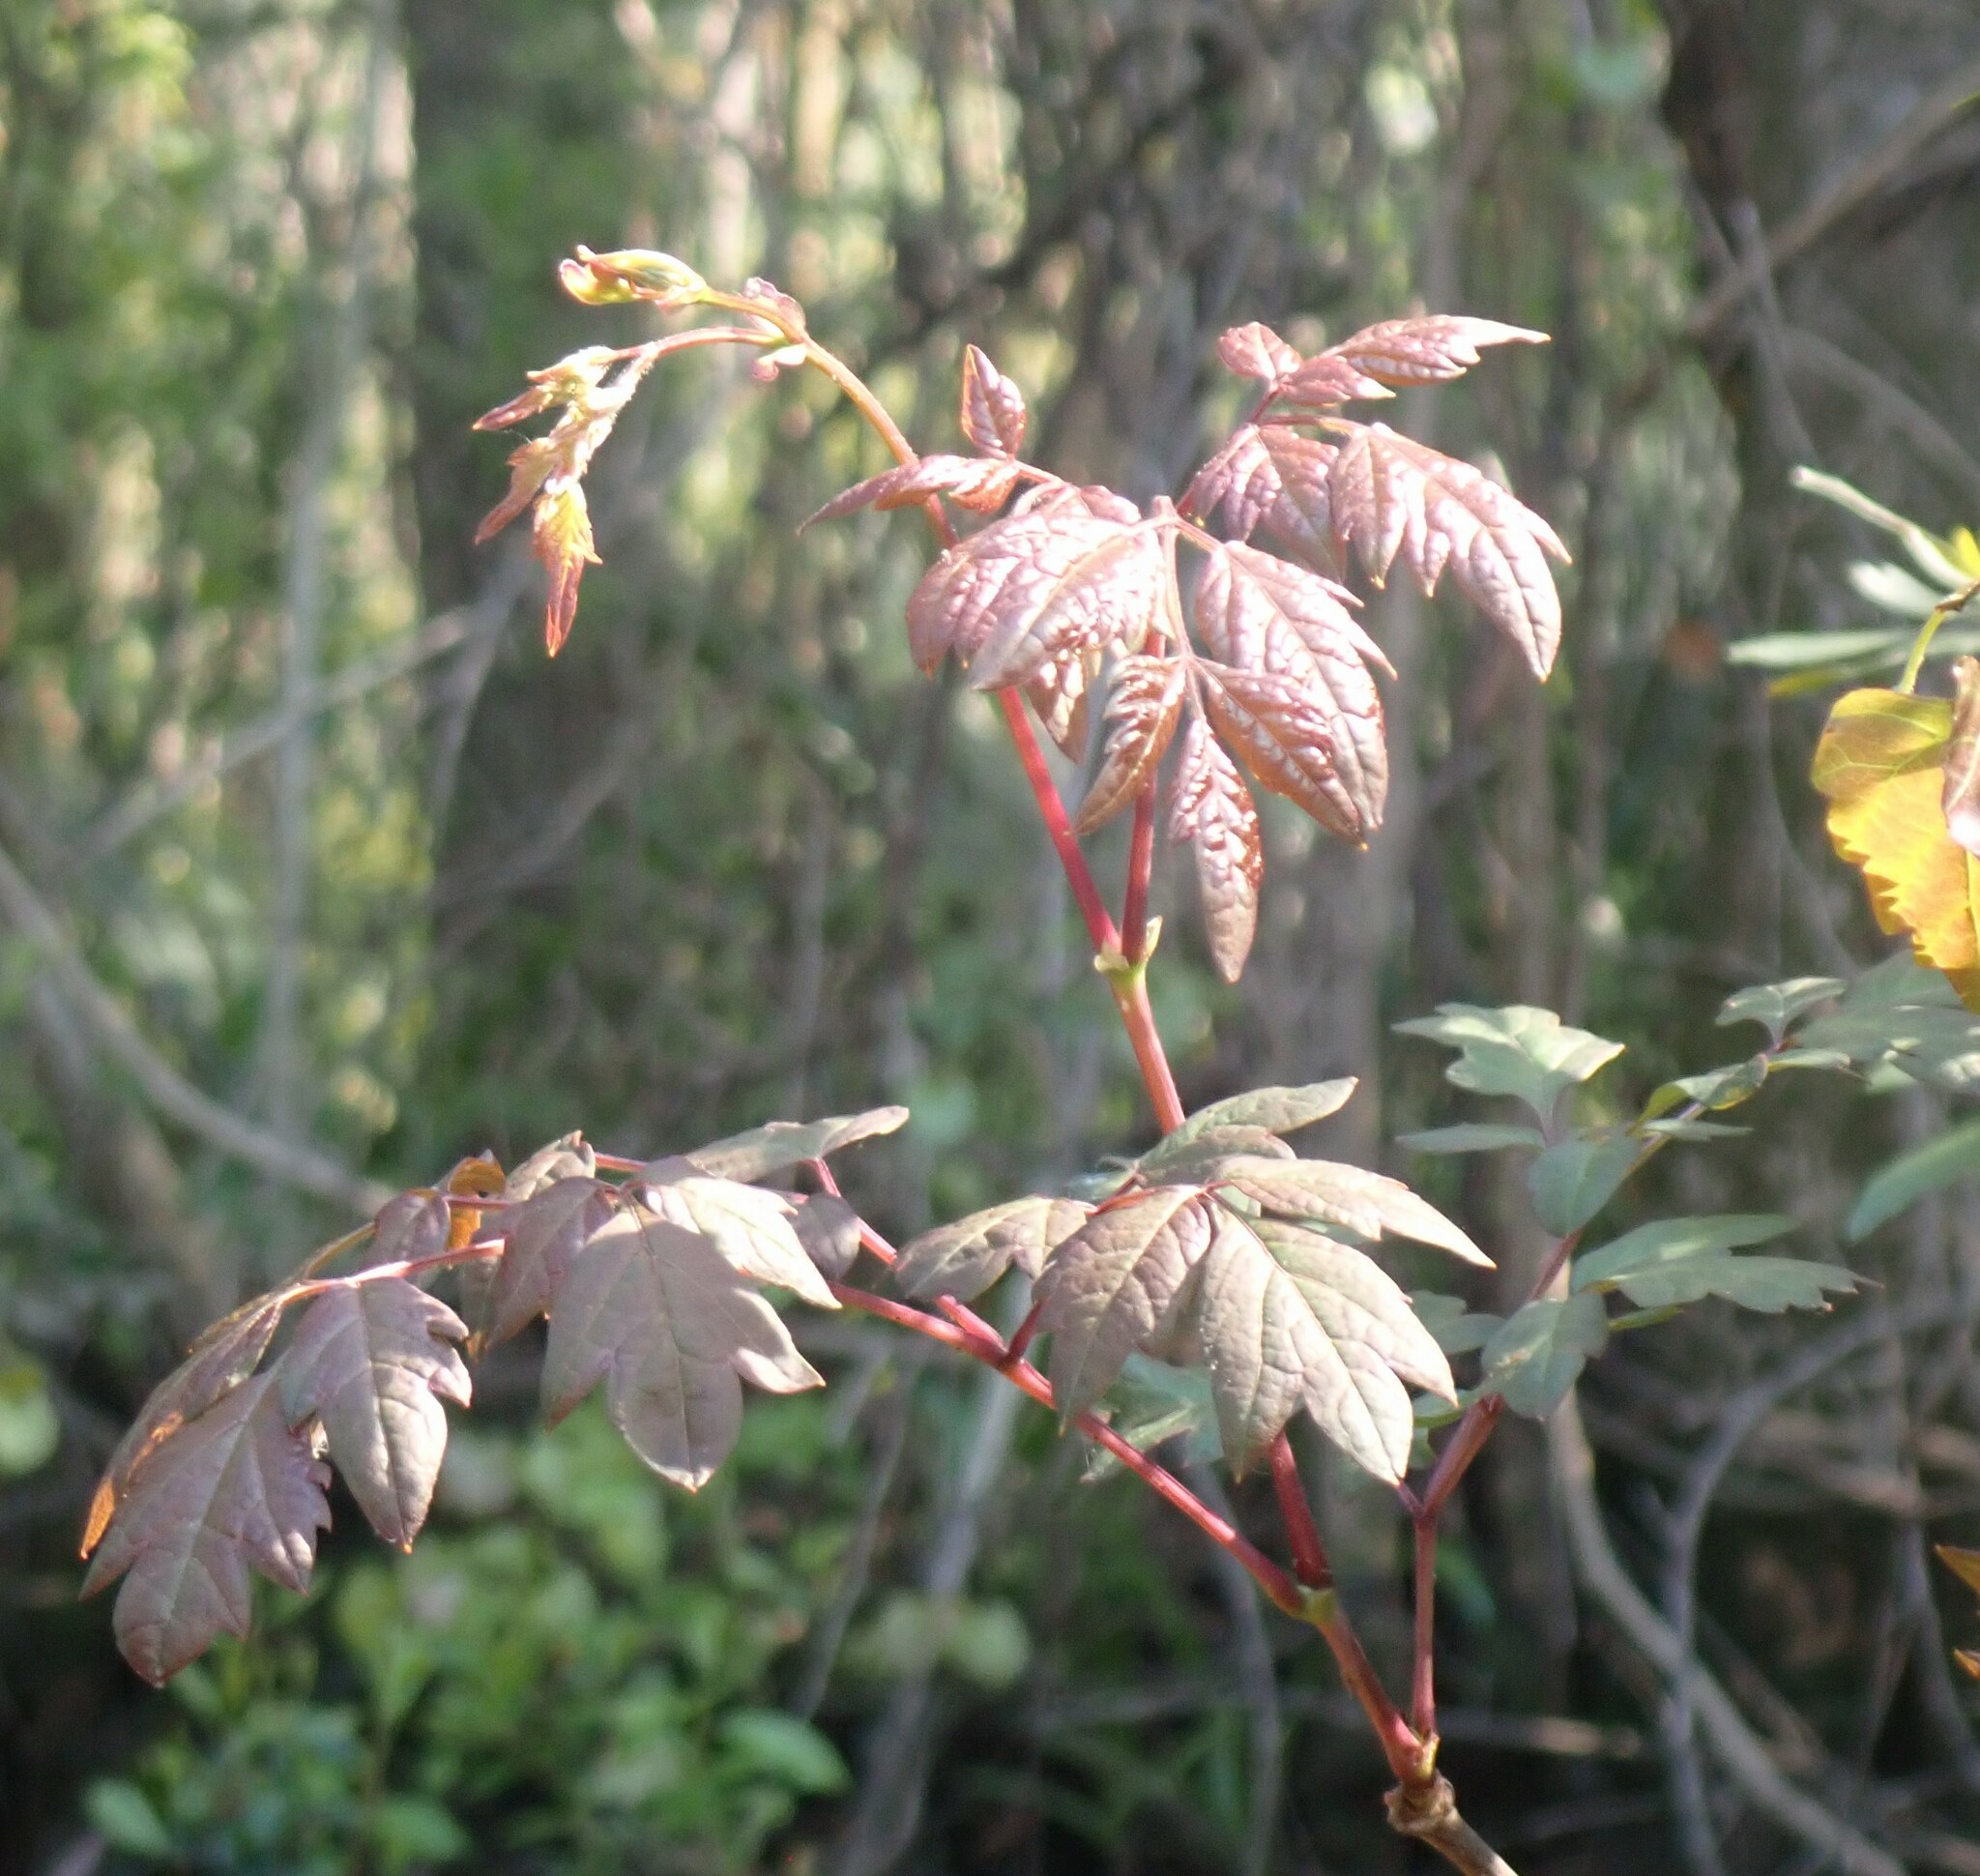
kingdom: Plantae
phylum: Tracheophyta
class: Magnoliopsida
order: Vitales
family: Vitaceae
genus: Nekemias
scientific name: Nekemias arborea
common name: Peppervine
